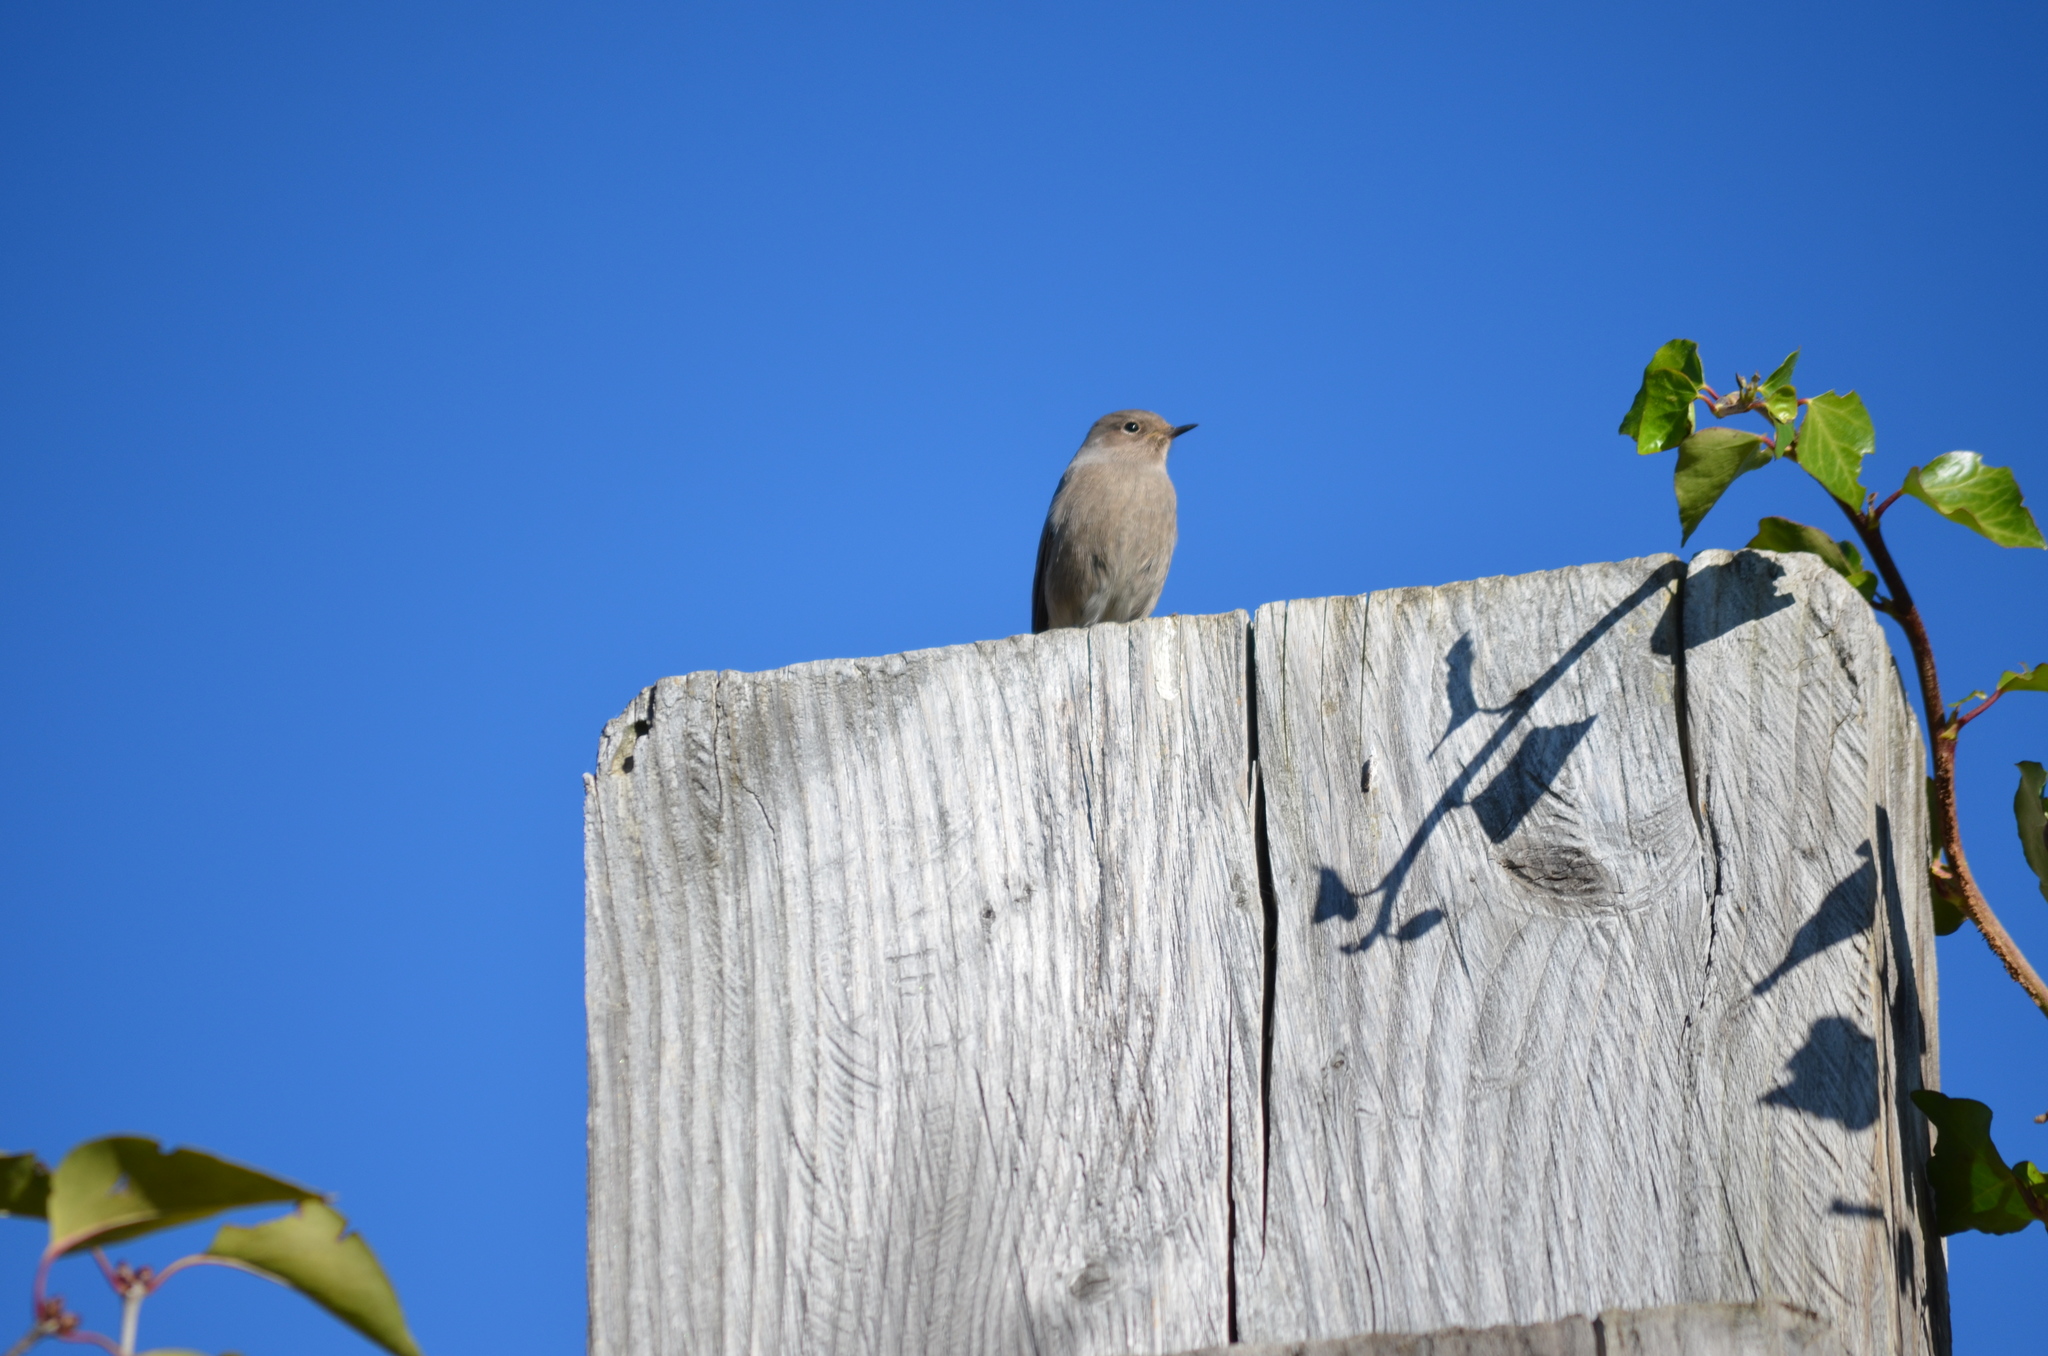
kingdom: Animalia
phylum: Chordata
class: Aves
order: Passeriformes
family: Muscicapidae
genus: Phoenicurus
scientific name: Phoenicurus ochruros
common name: Black redstart
